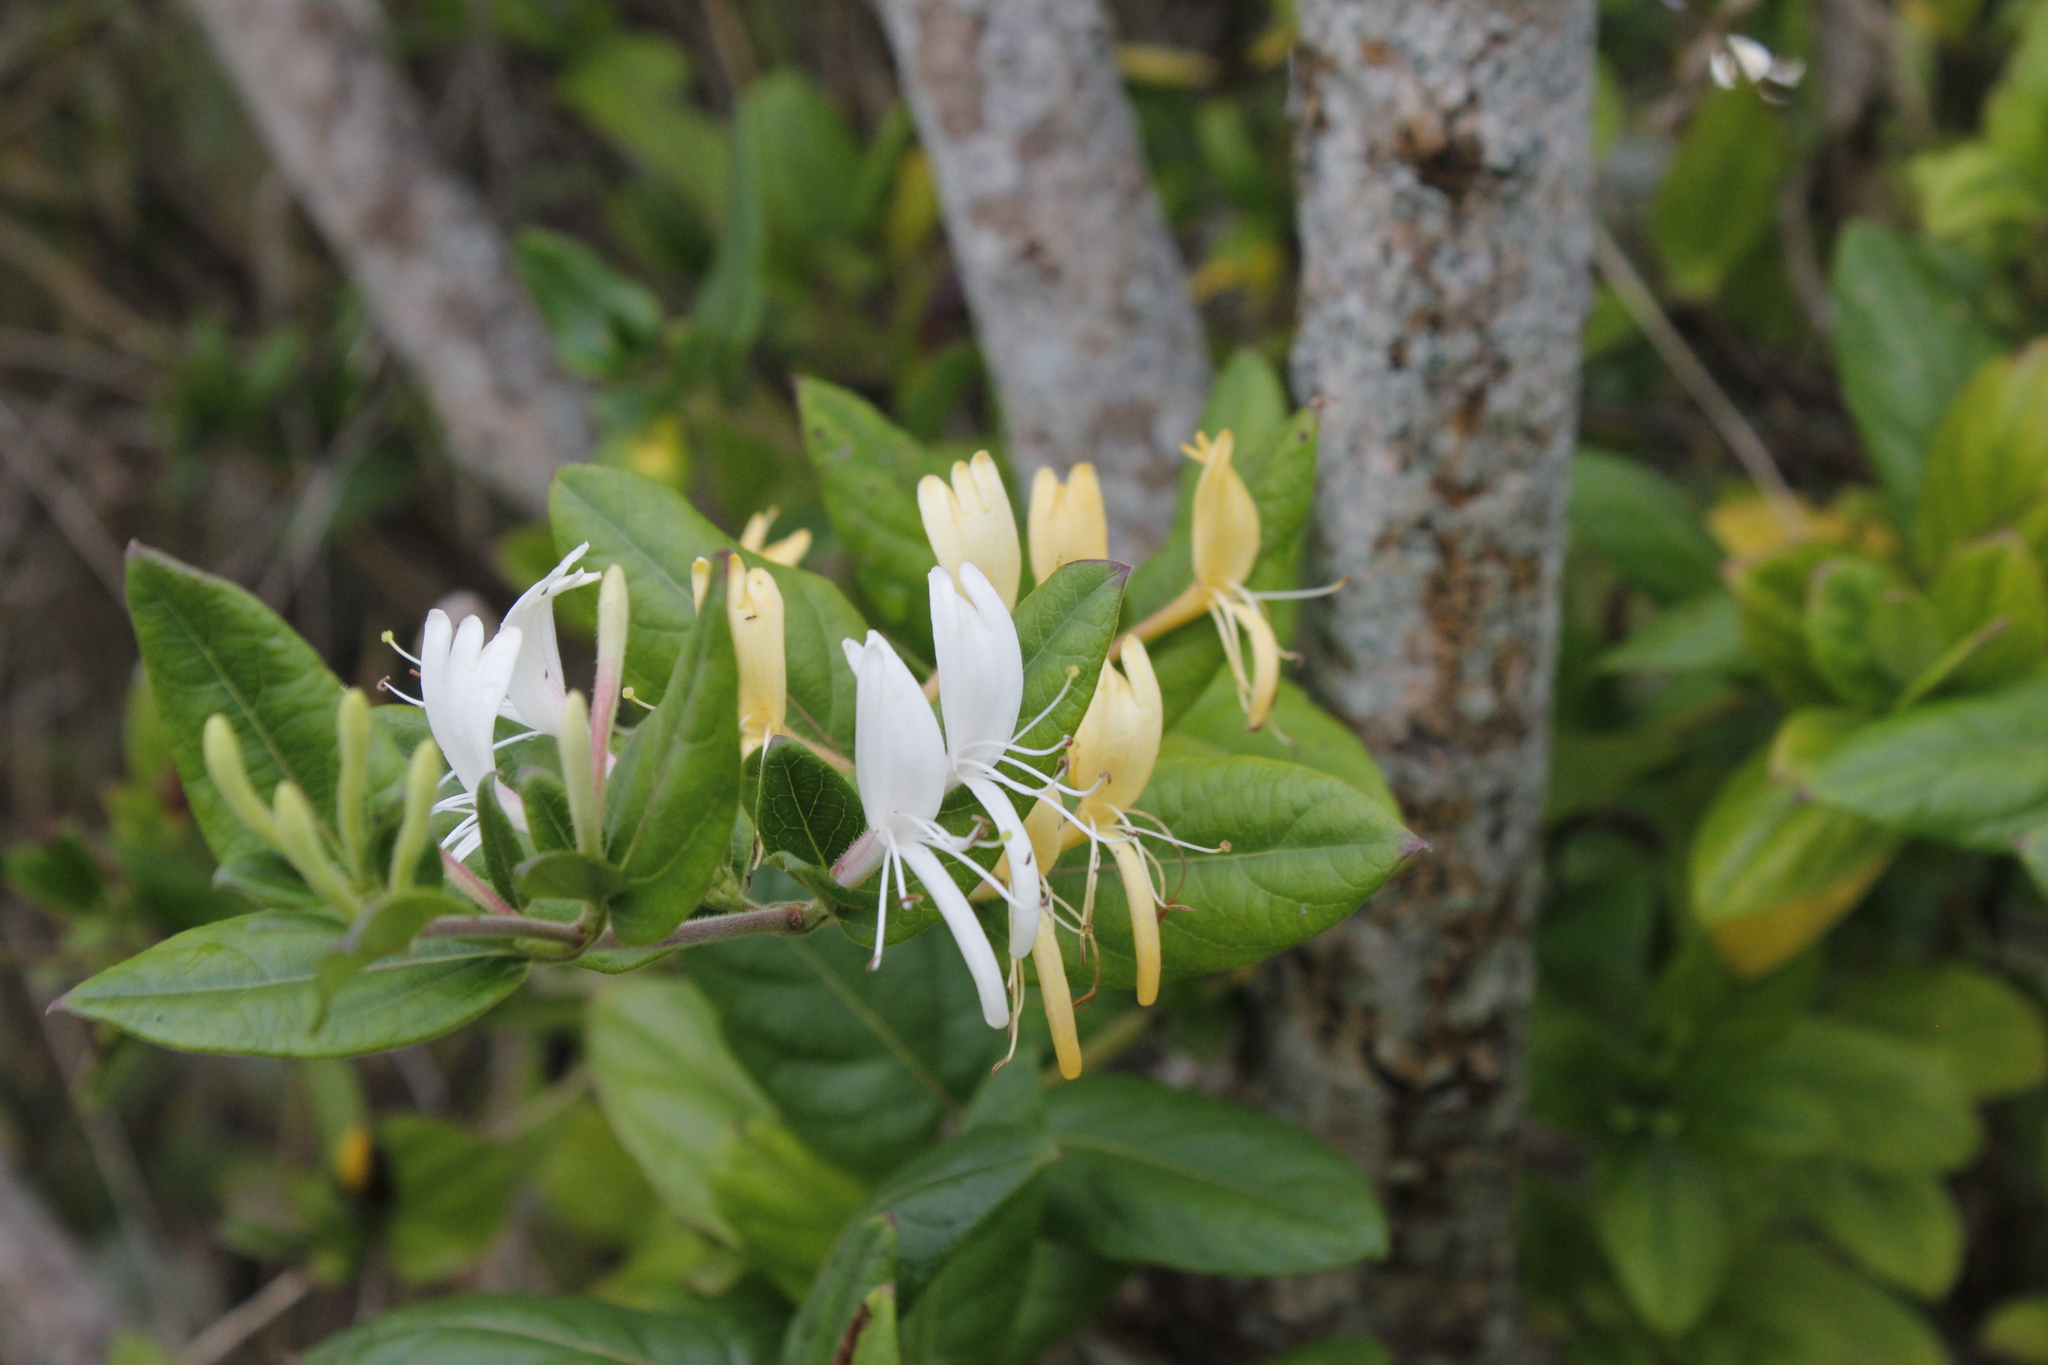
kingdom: Plantae
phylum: Tracheophyta
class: Magnoliopsida
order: Dipsacales
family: Caprifoliaceae
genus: Lonicera
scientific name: Lonicera japonica
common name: Japanese honeysuckle
